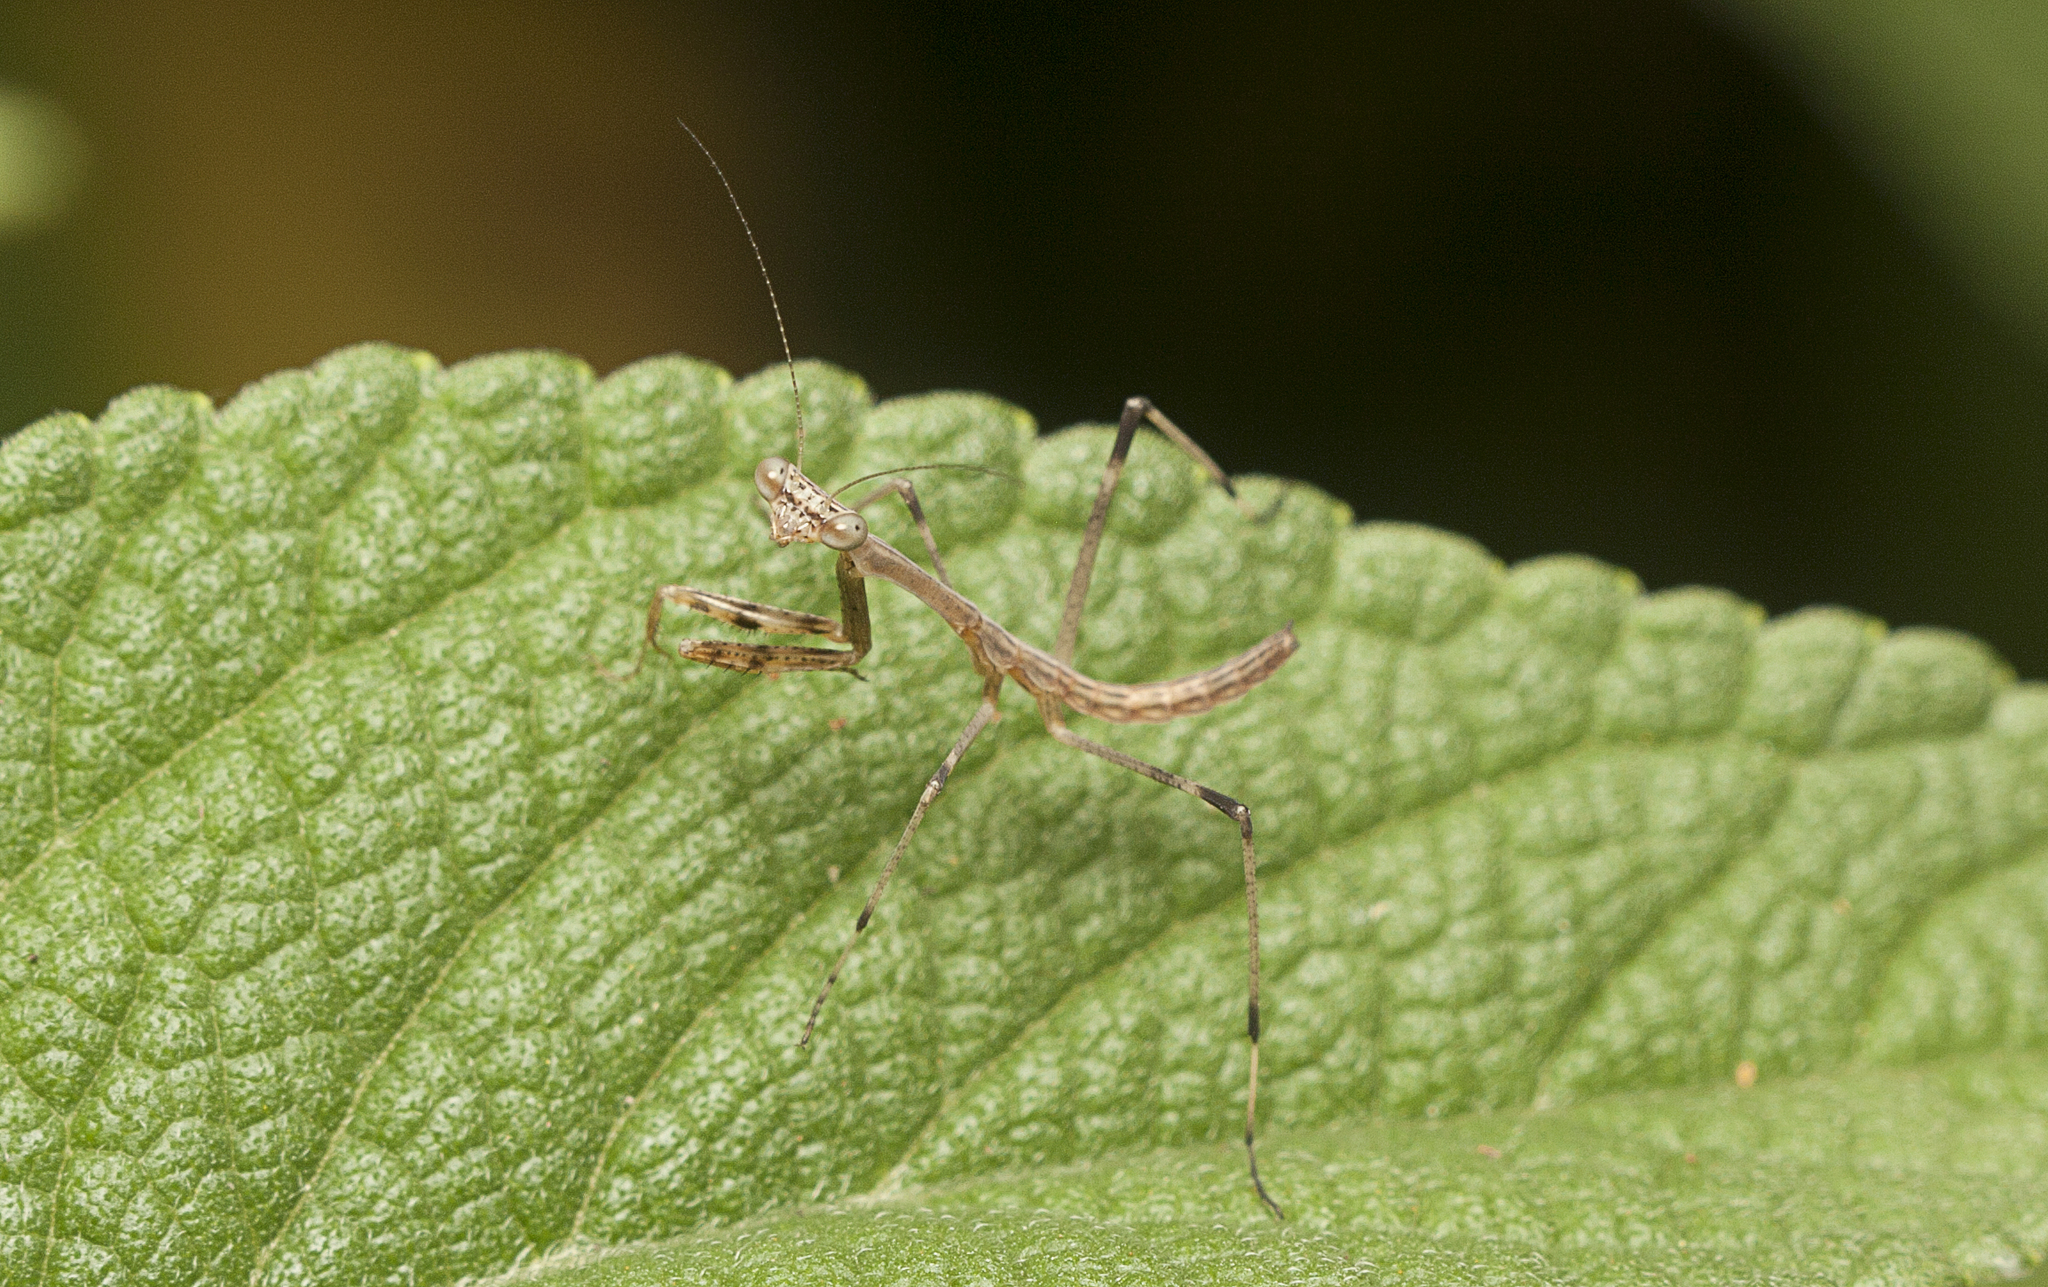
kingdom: Animalia
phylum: Arthropoda
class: Insecta
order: Mantodea
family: Mantidae
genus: Archimantis
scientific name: Archimantis latistyla
